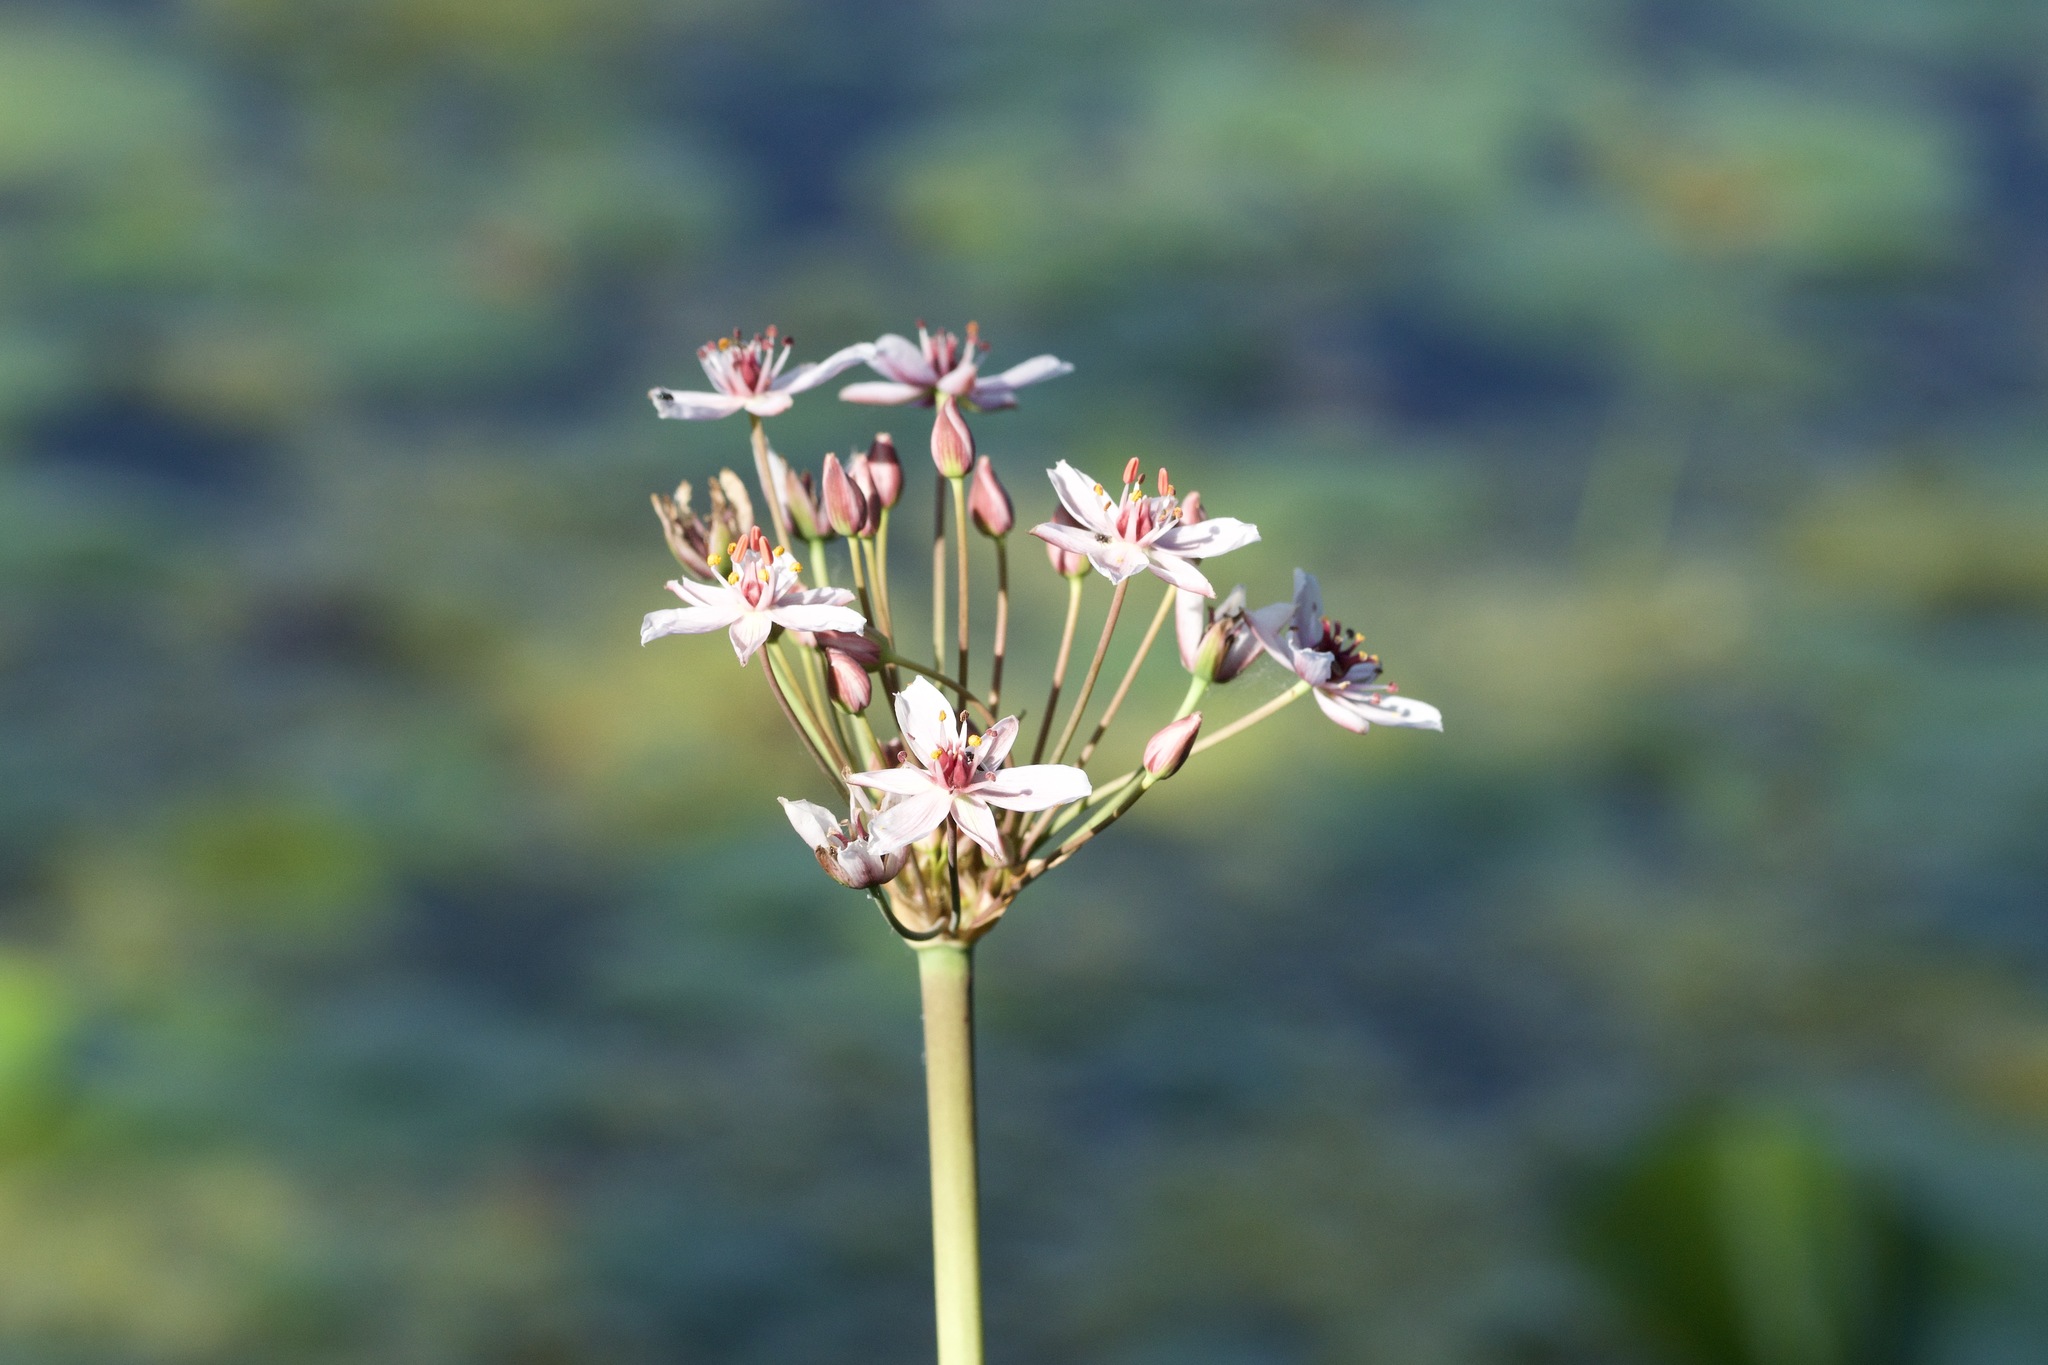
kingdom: Plantae
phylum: Tracheophyta
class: Liliopsida
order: Alismatales
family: Butomaceae
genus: Butomus
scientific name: Butomus umbellatus
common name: Flowering-rush
